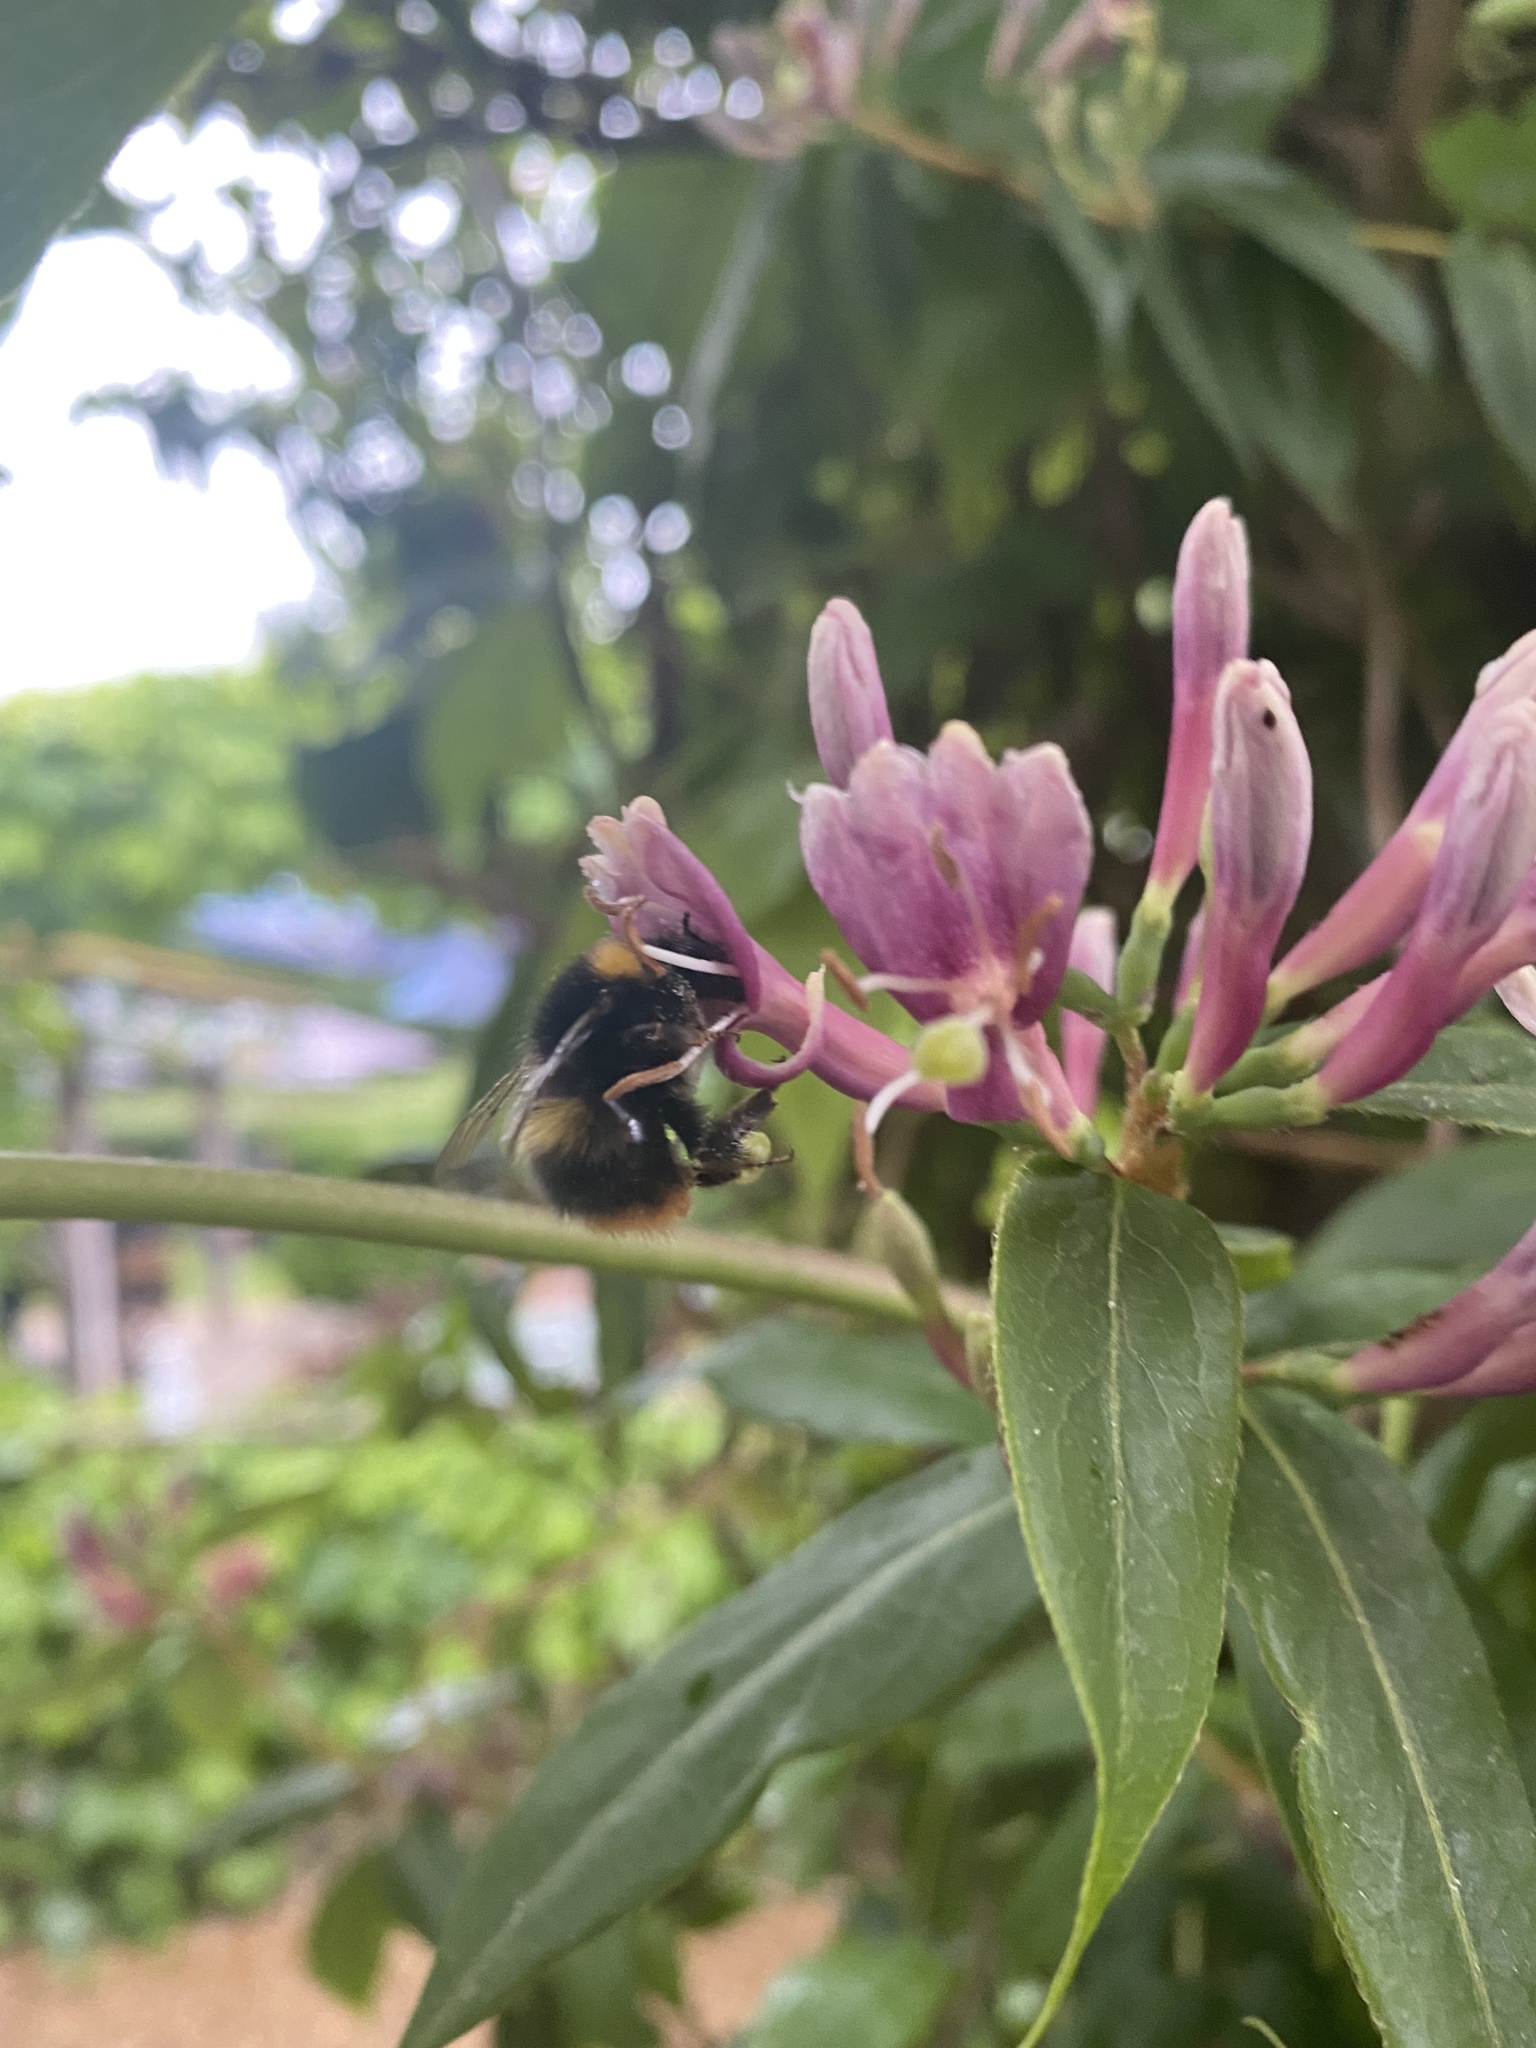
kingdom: Animalia
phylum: Arthropoda
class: Insecta
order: Hymenoptera
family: Apidae
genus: Bombus
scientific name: Bombus pratorum
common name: Early humble-bee
